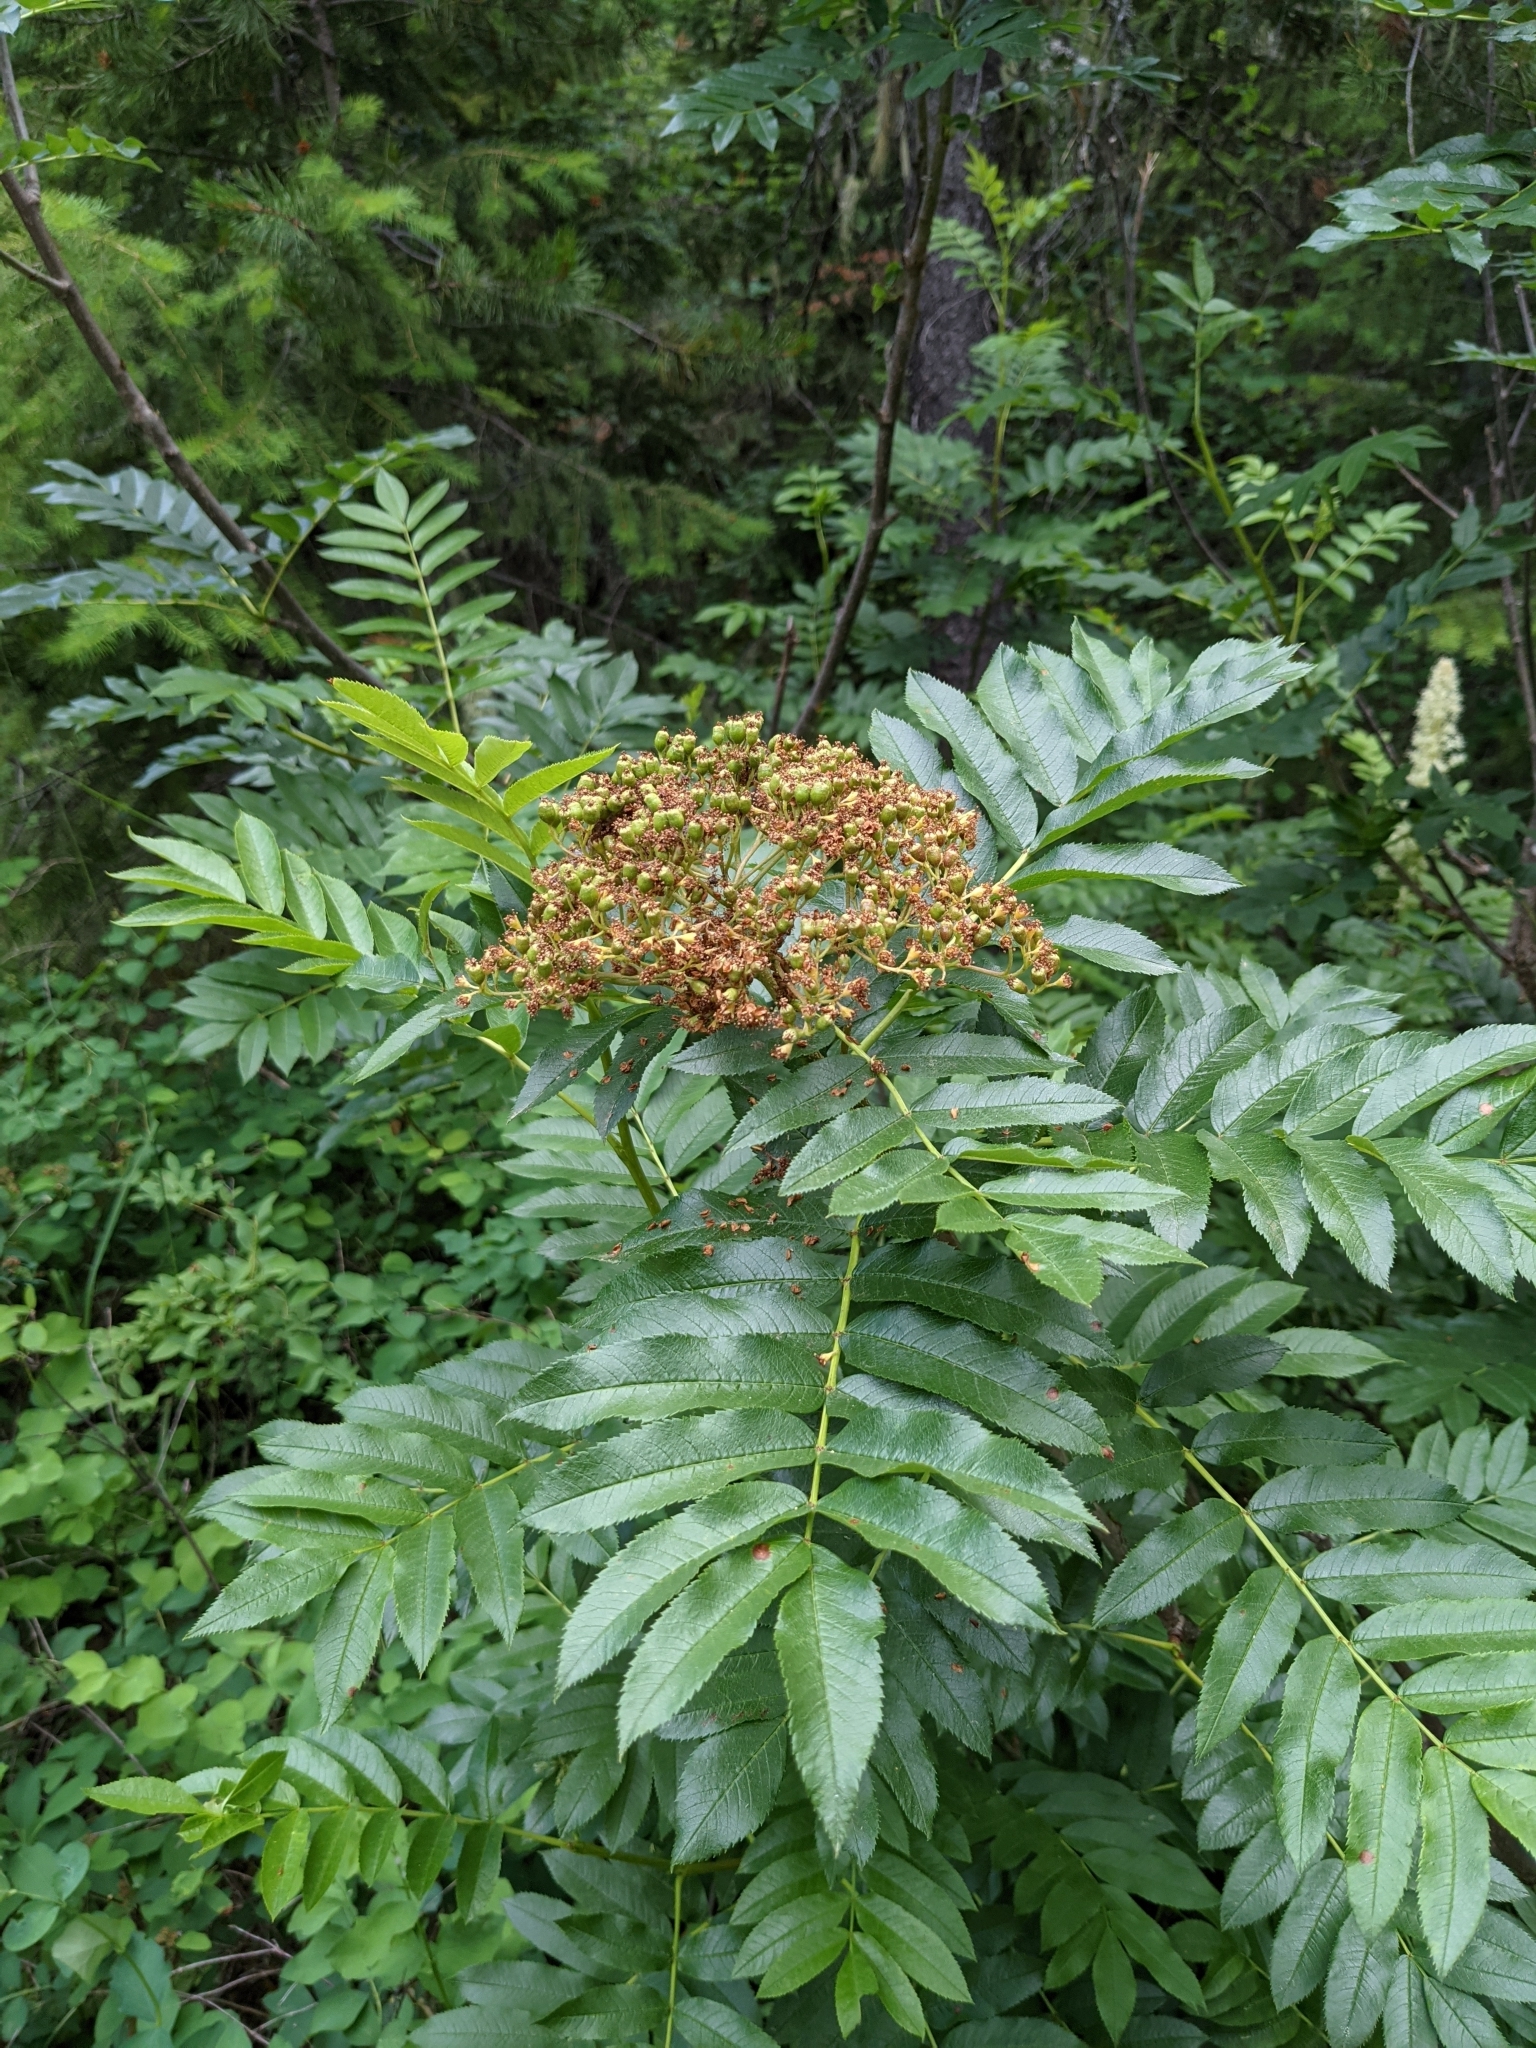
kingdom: Plantae
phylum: Tracheophyta
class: Magnoliopsida
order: Rosales
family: Rosaceae
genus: Sorbus
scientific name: Sorbus scopulina
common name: Greene's mountain-ash
